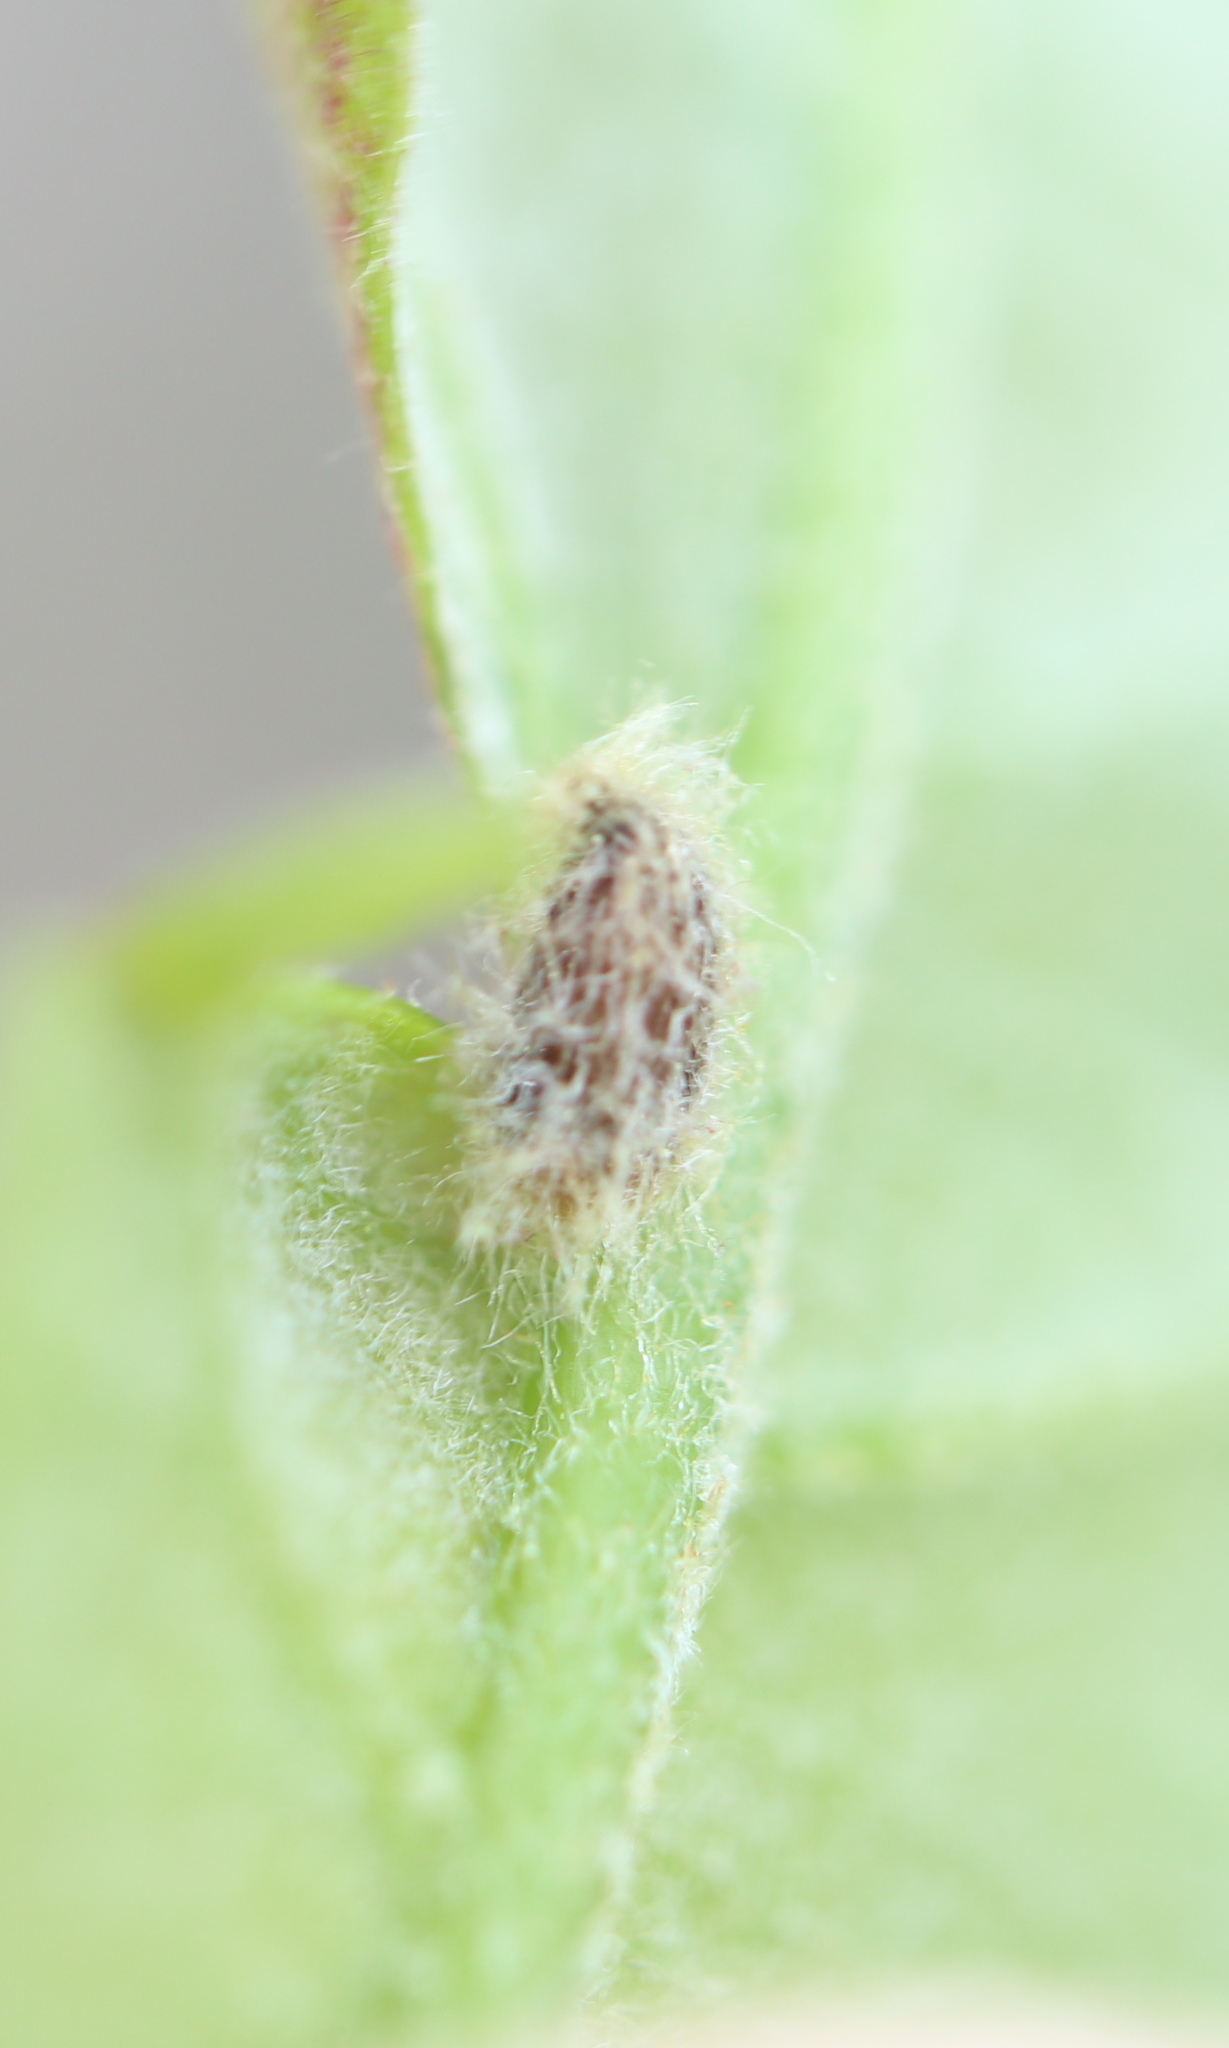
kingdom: Animalia
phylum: Arthropoda
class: Insecta
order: Hymenoptera
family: Cynipidae
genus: Andricus
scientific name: Andricus
